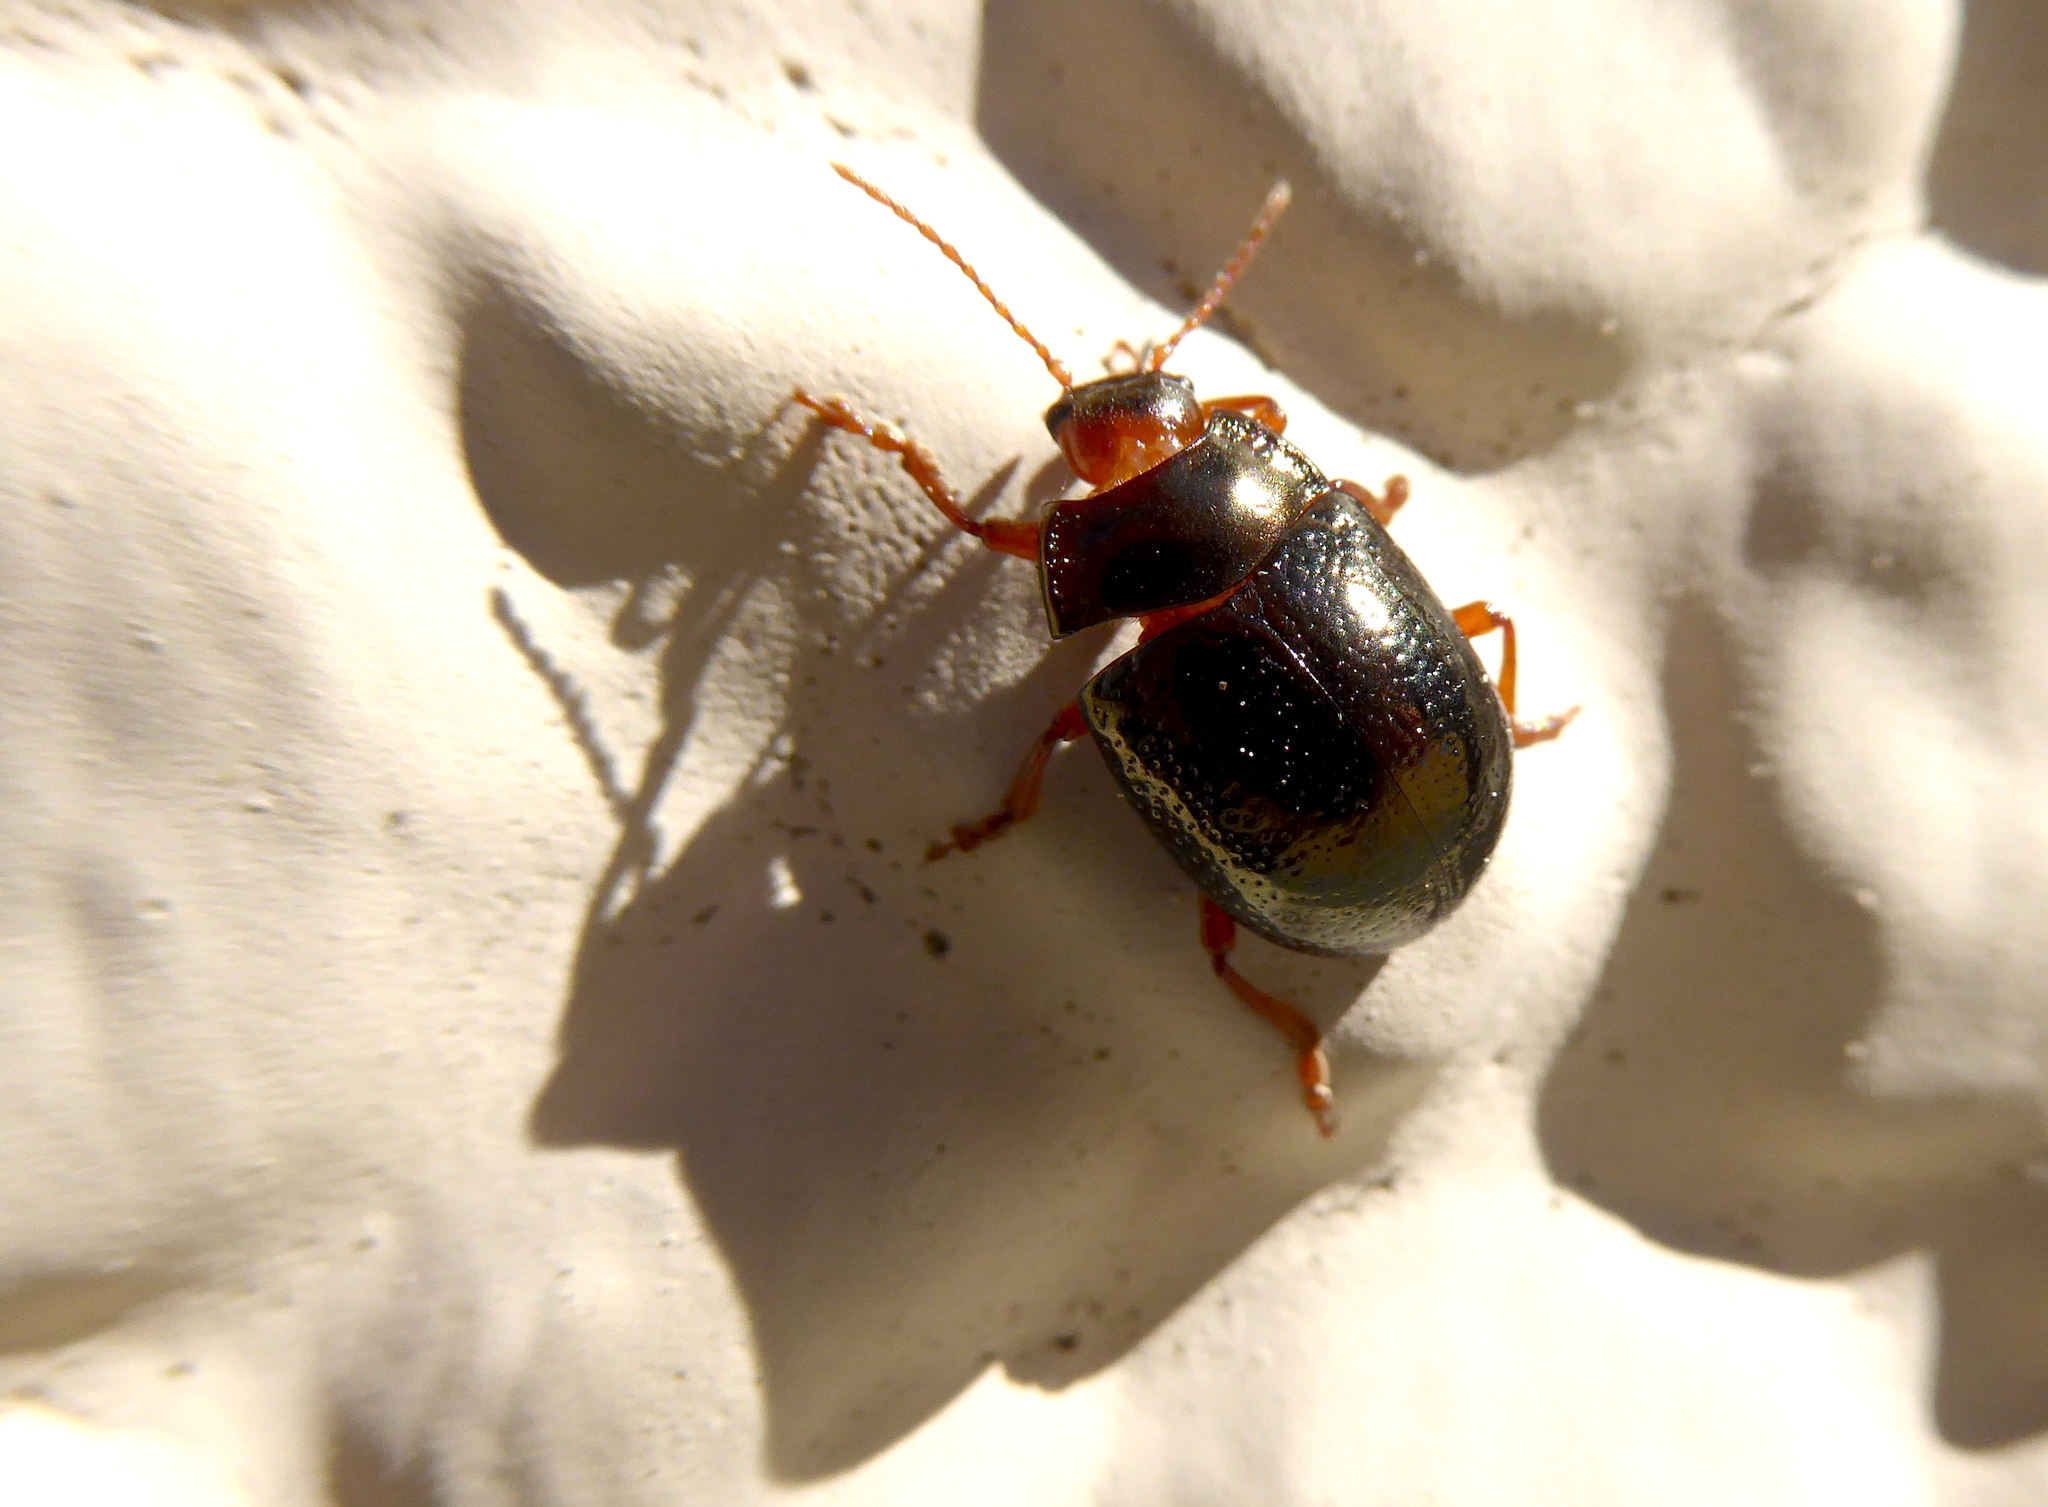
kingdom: Animalia
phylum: Arthropoda
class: Insecta
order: Coleoptera
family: Chrysomelidae
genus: Chrysolina
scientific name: Chrysolina bankii
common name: Leaf beetle
